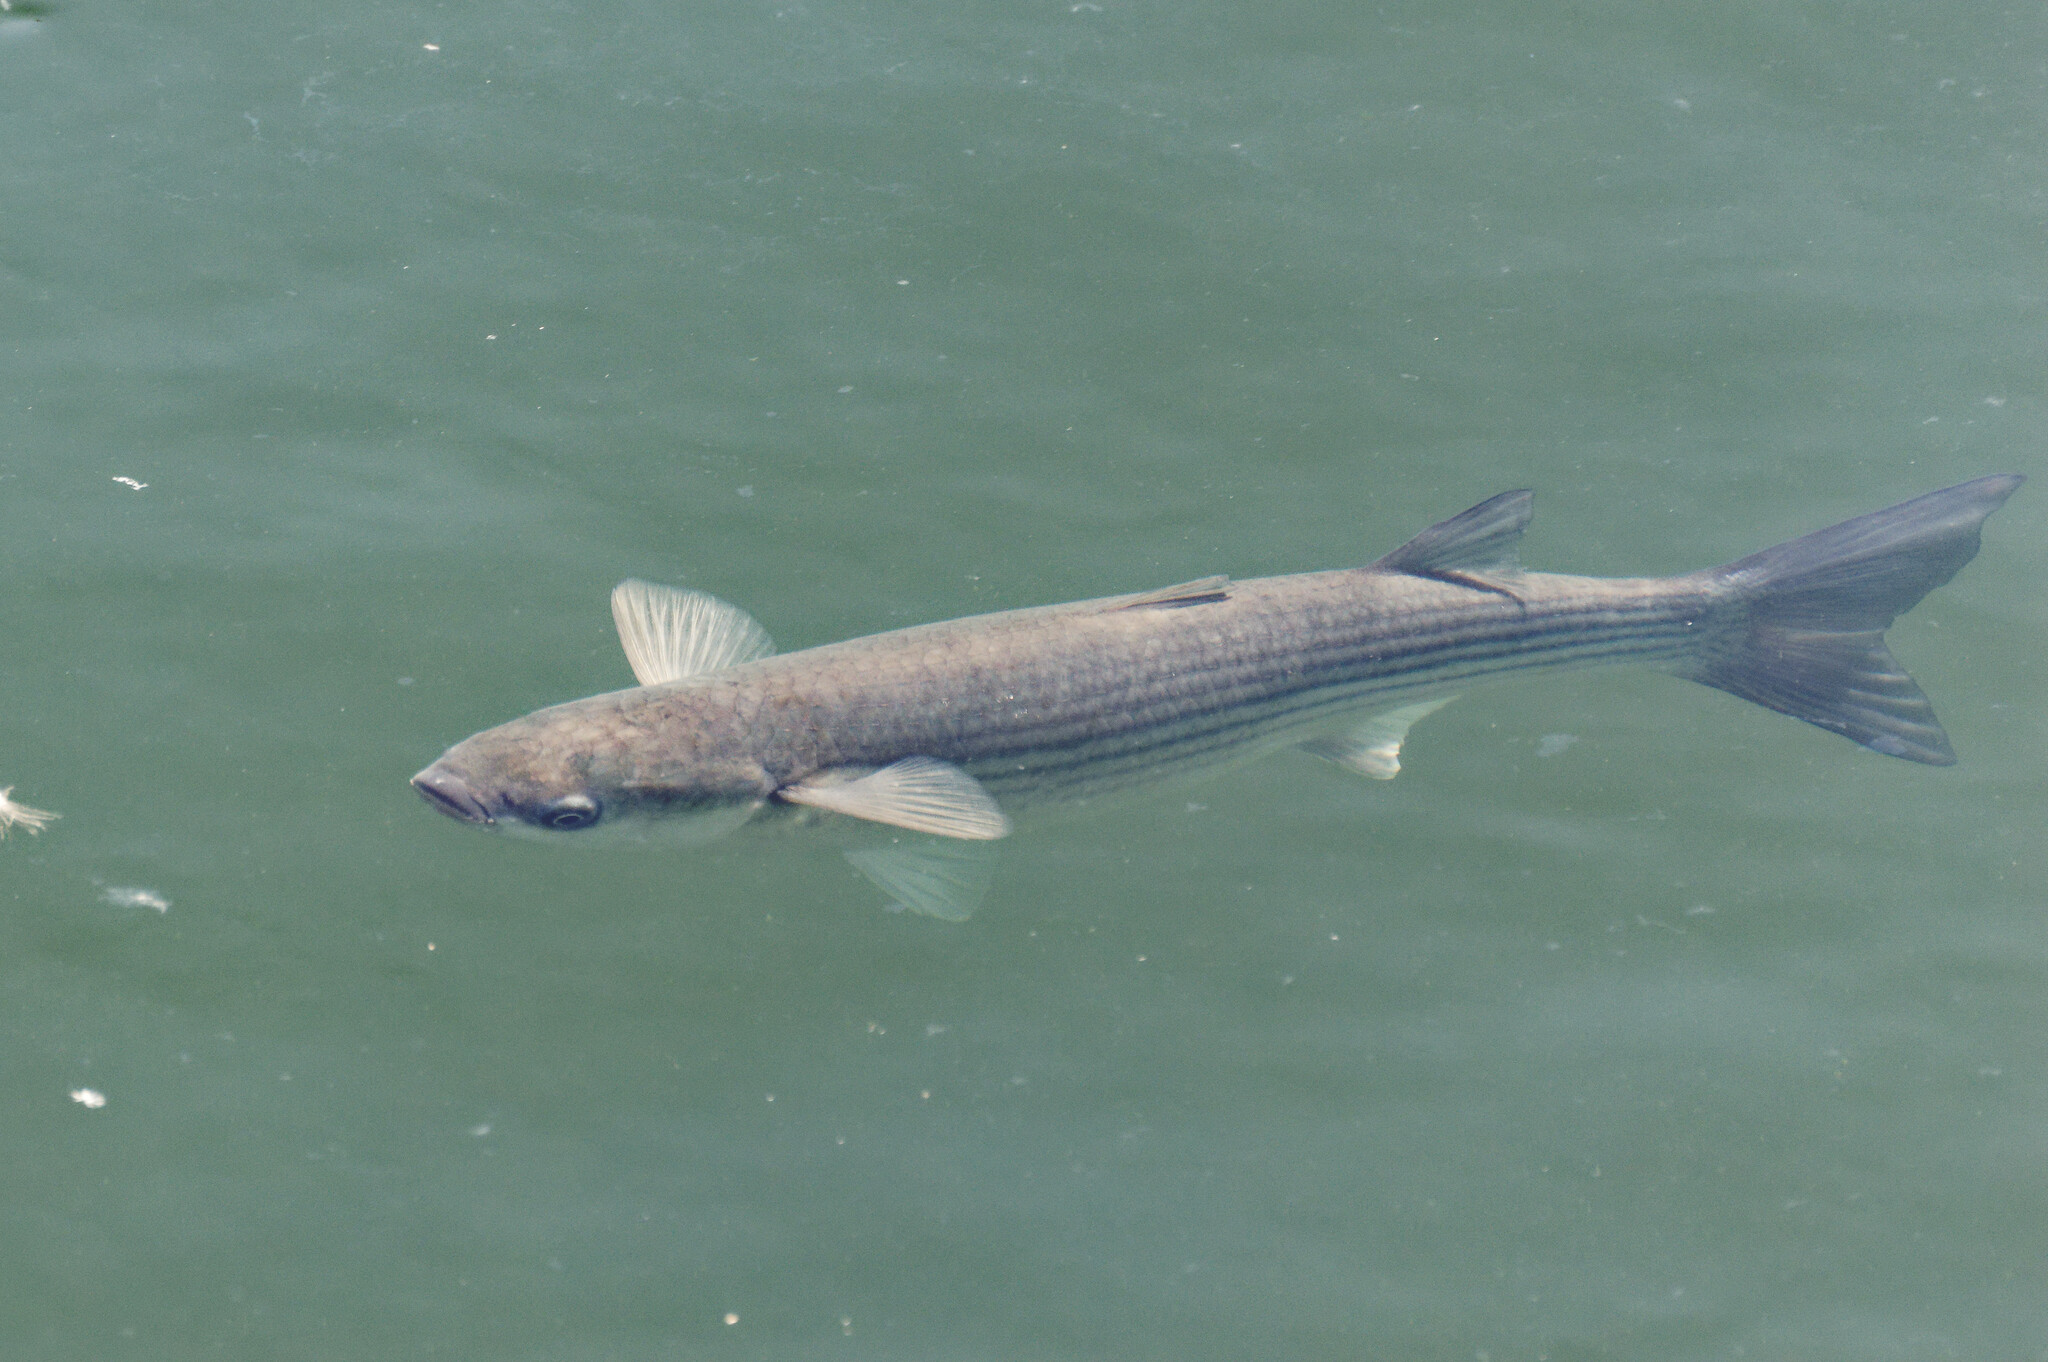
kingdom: Animalia
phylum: Chordata
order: Mugiliformes
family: Mugilidae
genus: Chelon
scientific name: Chelon labrosus
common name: Thick-lipped mullet
